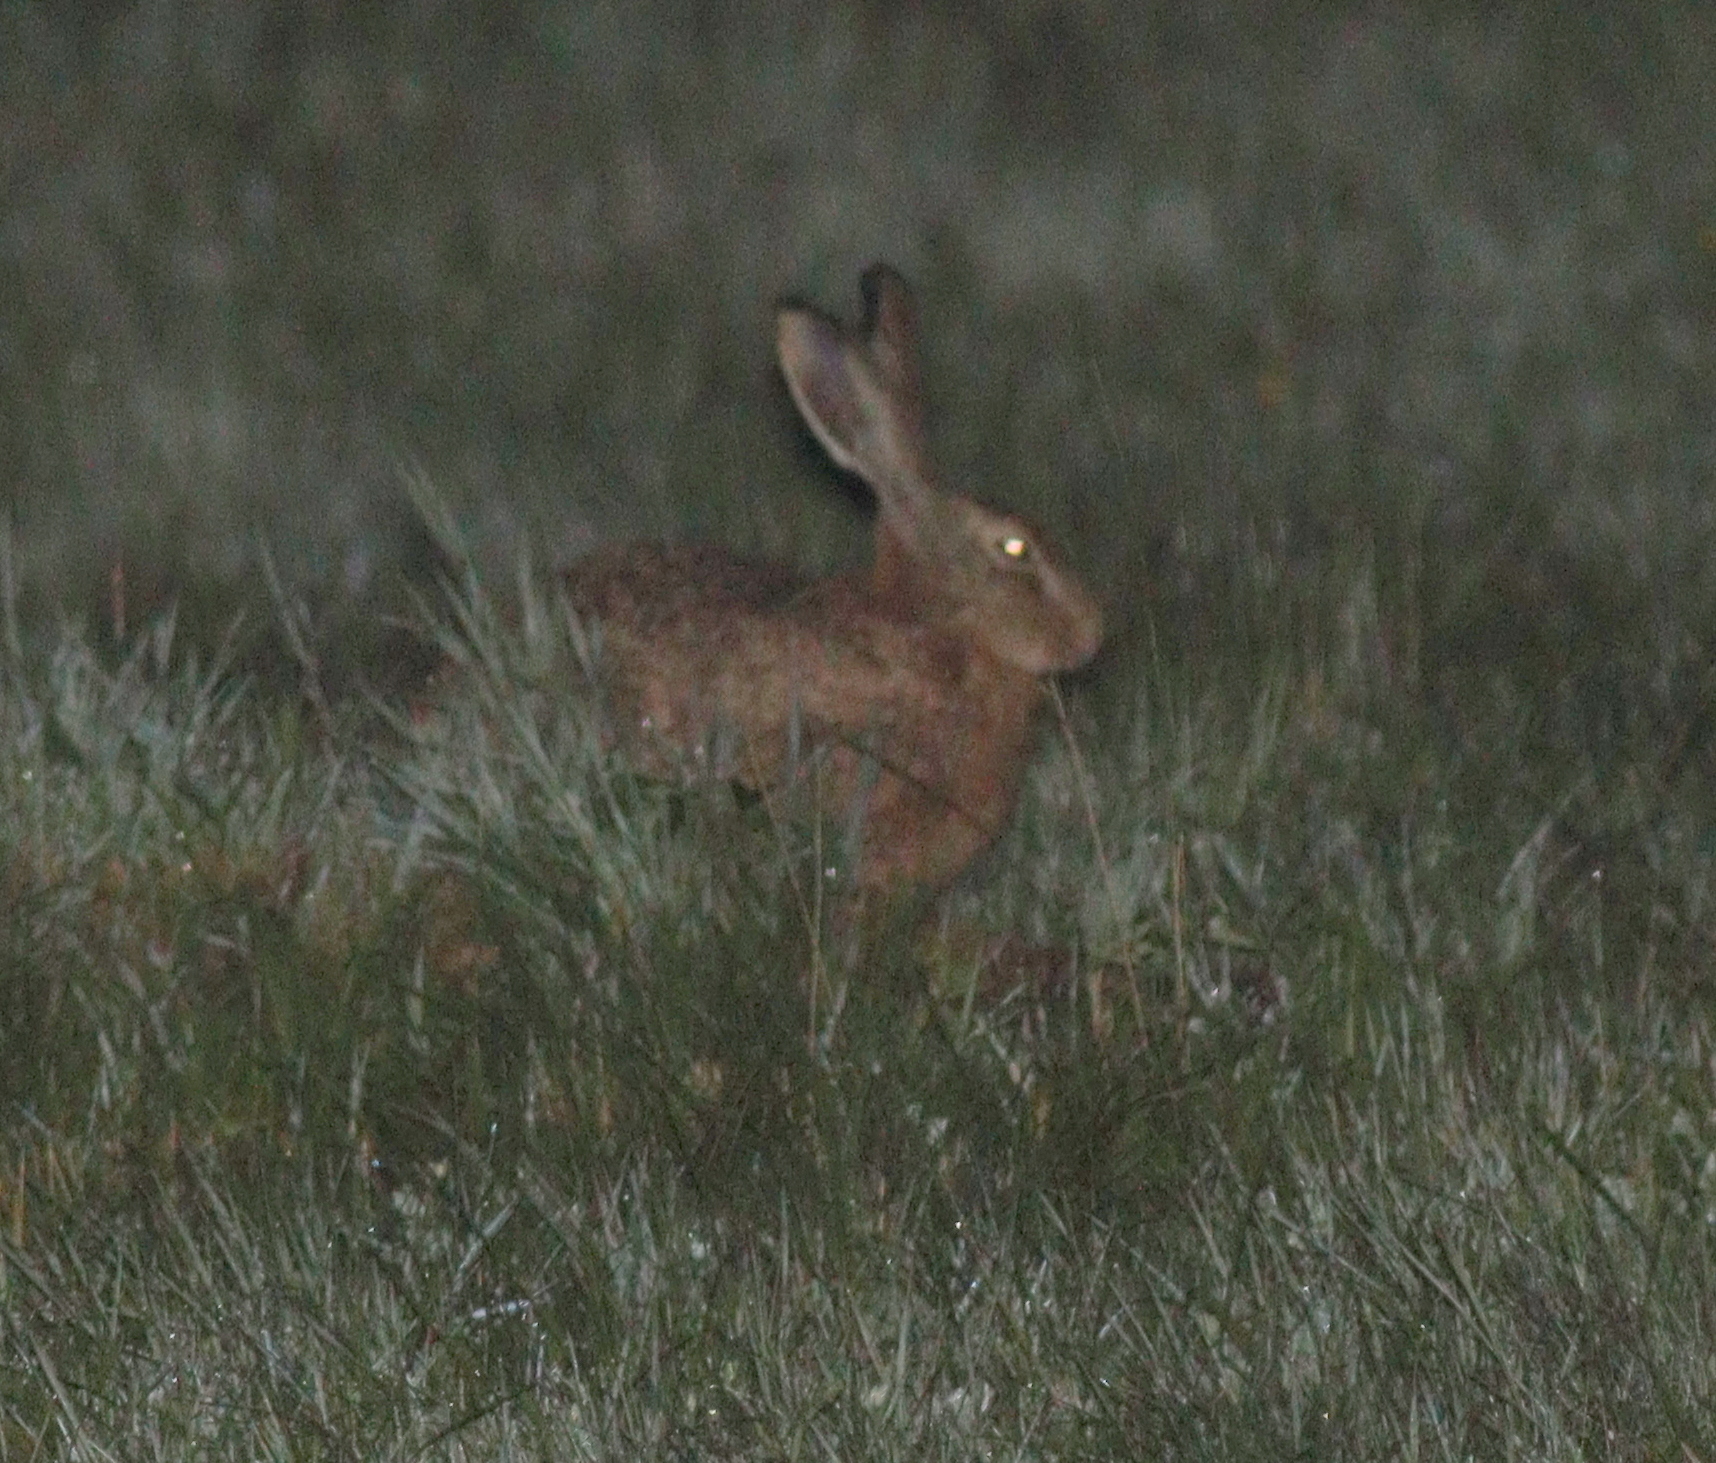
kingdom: Animalia
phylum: Chordata
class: Mammalia
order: Lagomorpha
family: Leporidae
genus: Lepus
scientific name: Lepus europaeus
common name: European hare
